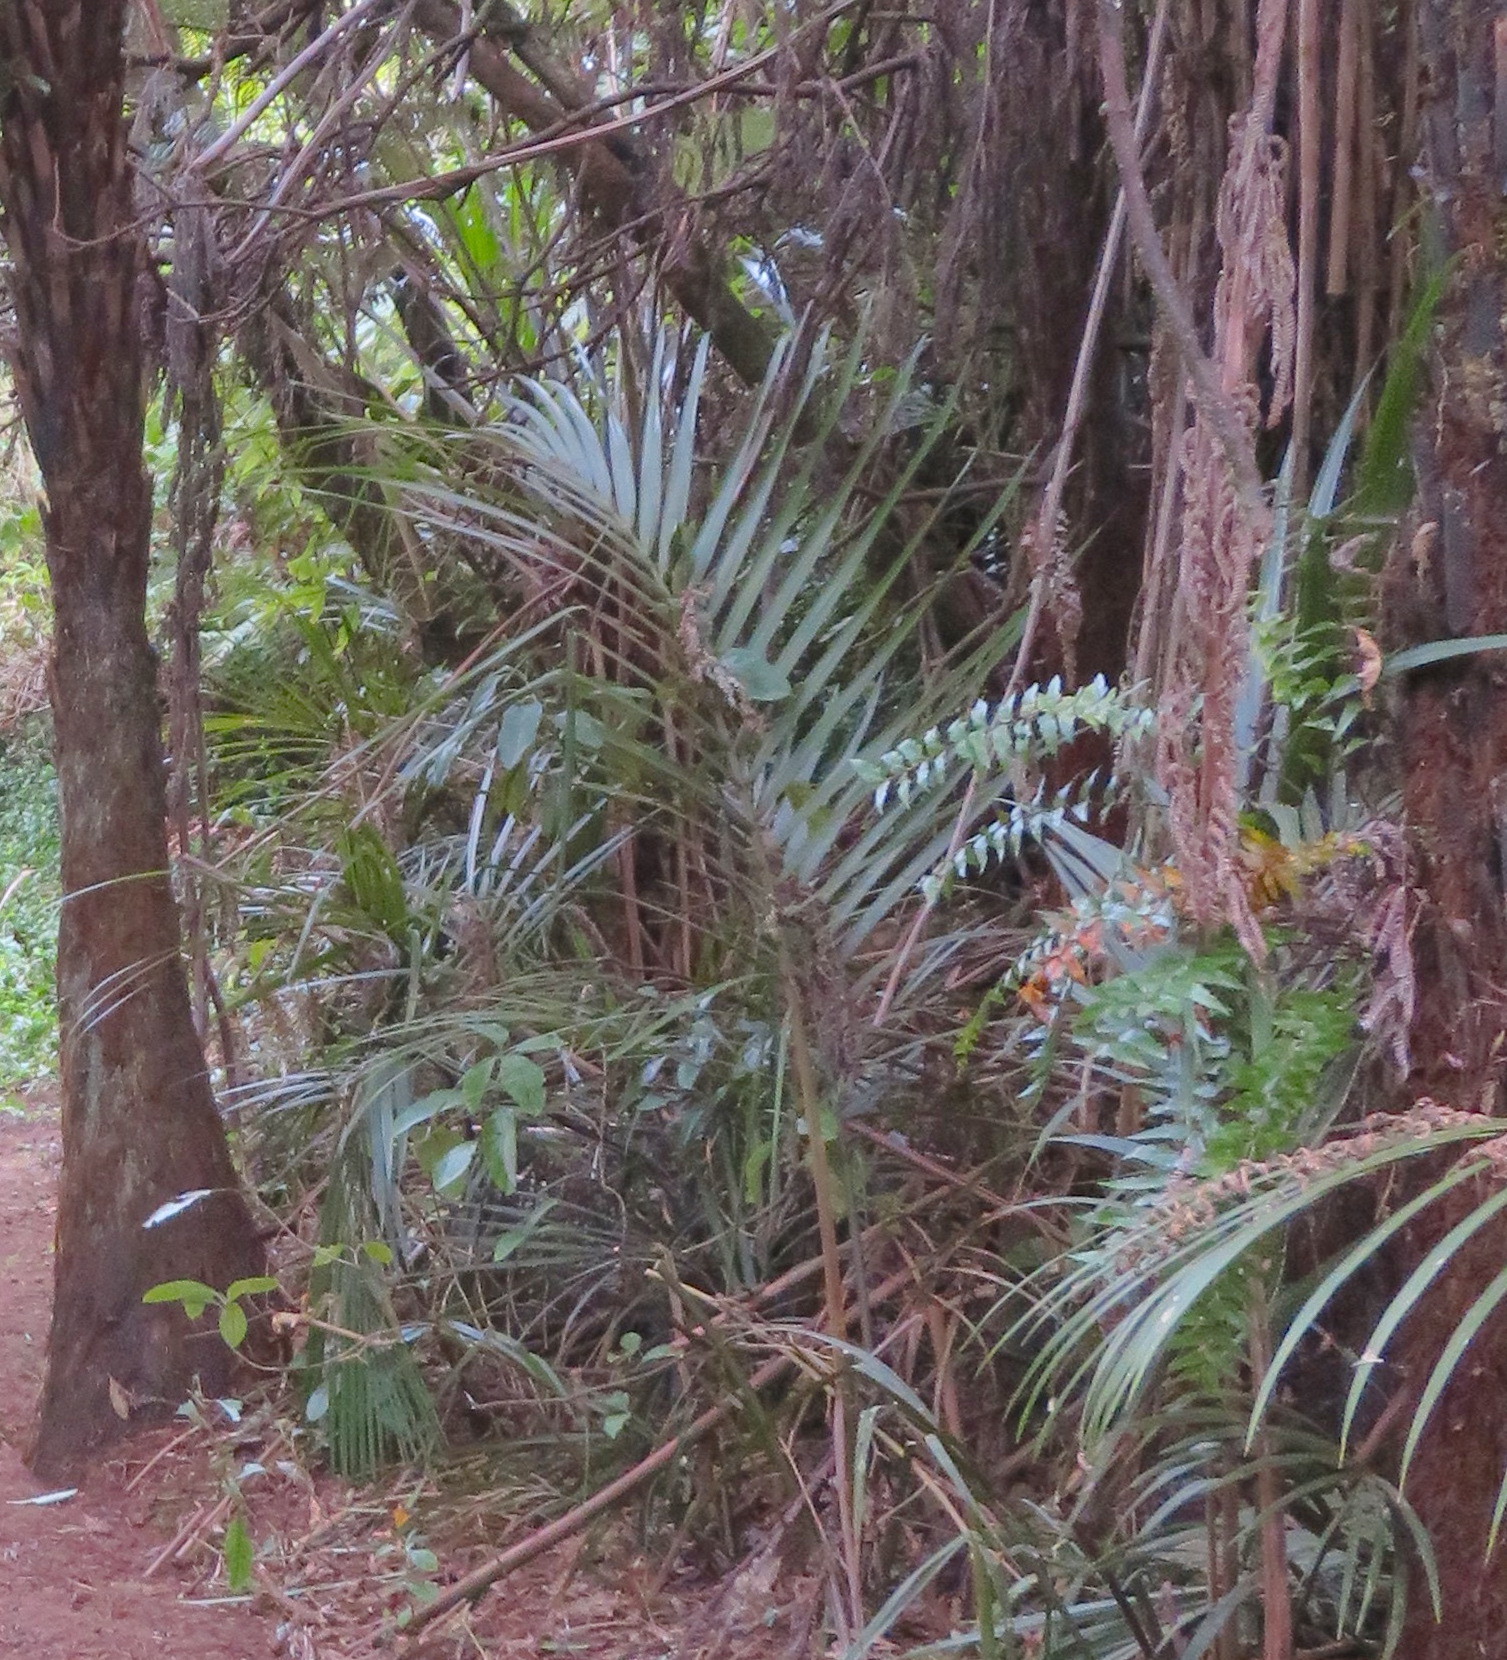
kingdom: Plantae
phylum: Tracheophyta
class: Polypodiopsida
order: Polypodiales
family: Aspleniaceae
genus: Asplenium
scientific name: Asplenium polyodon
